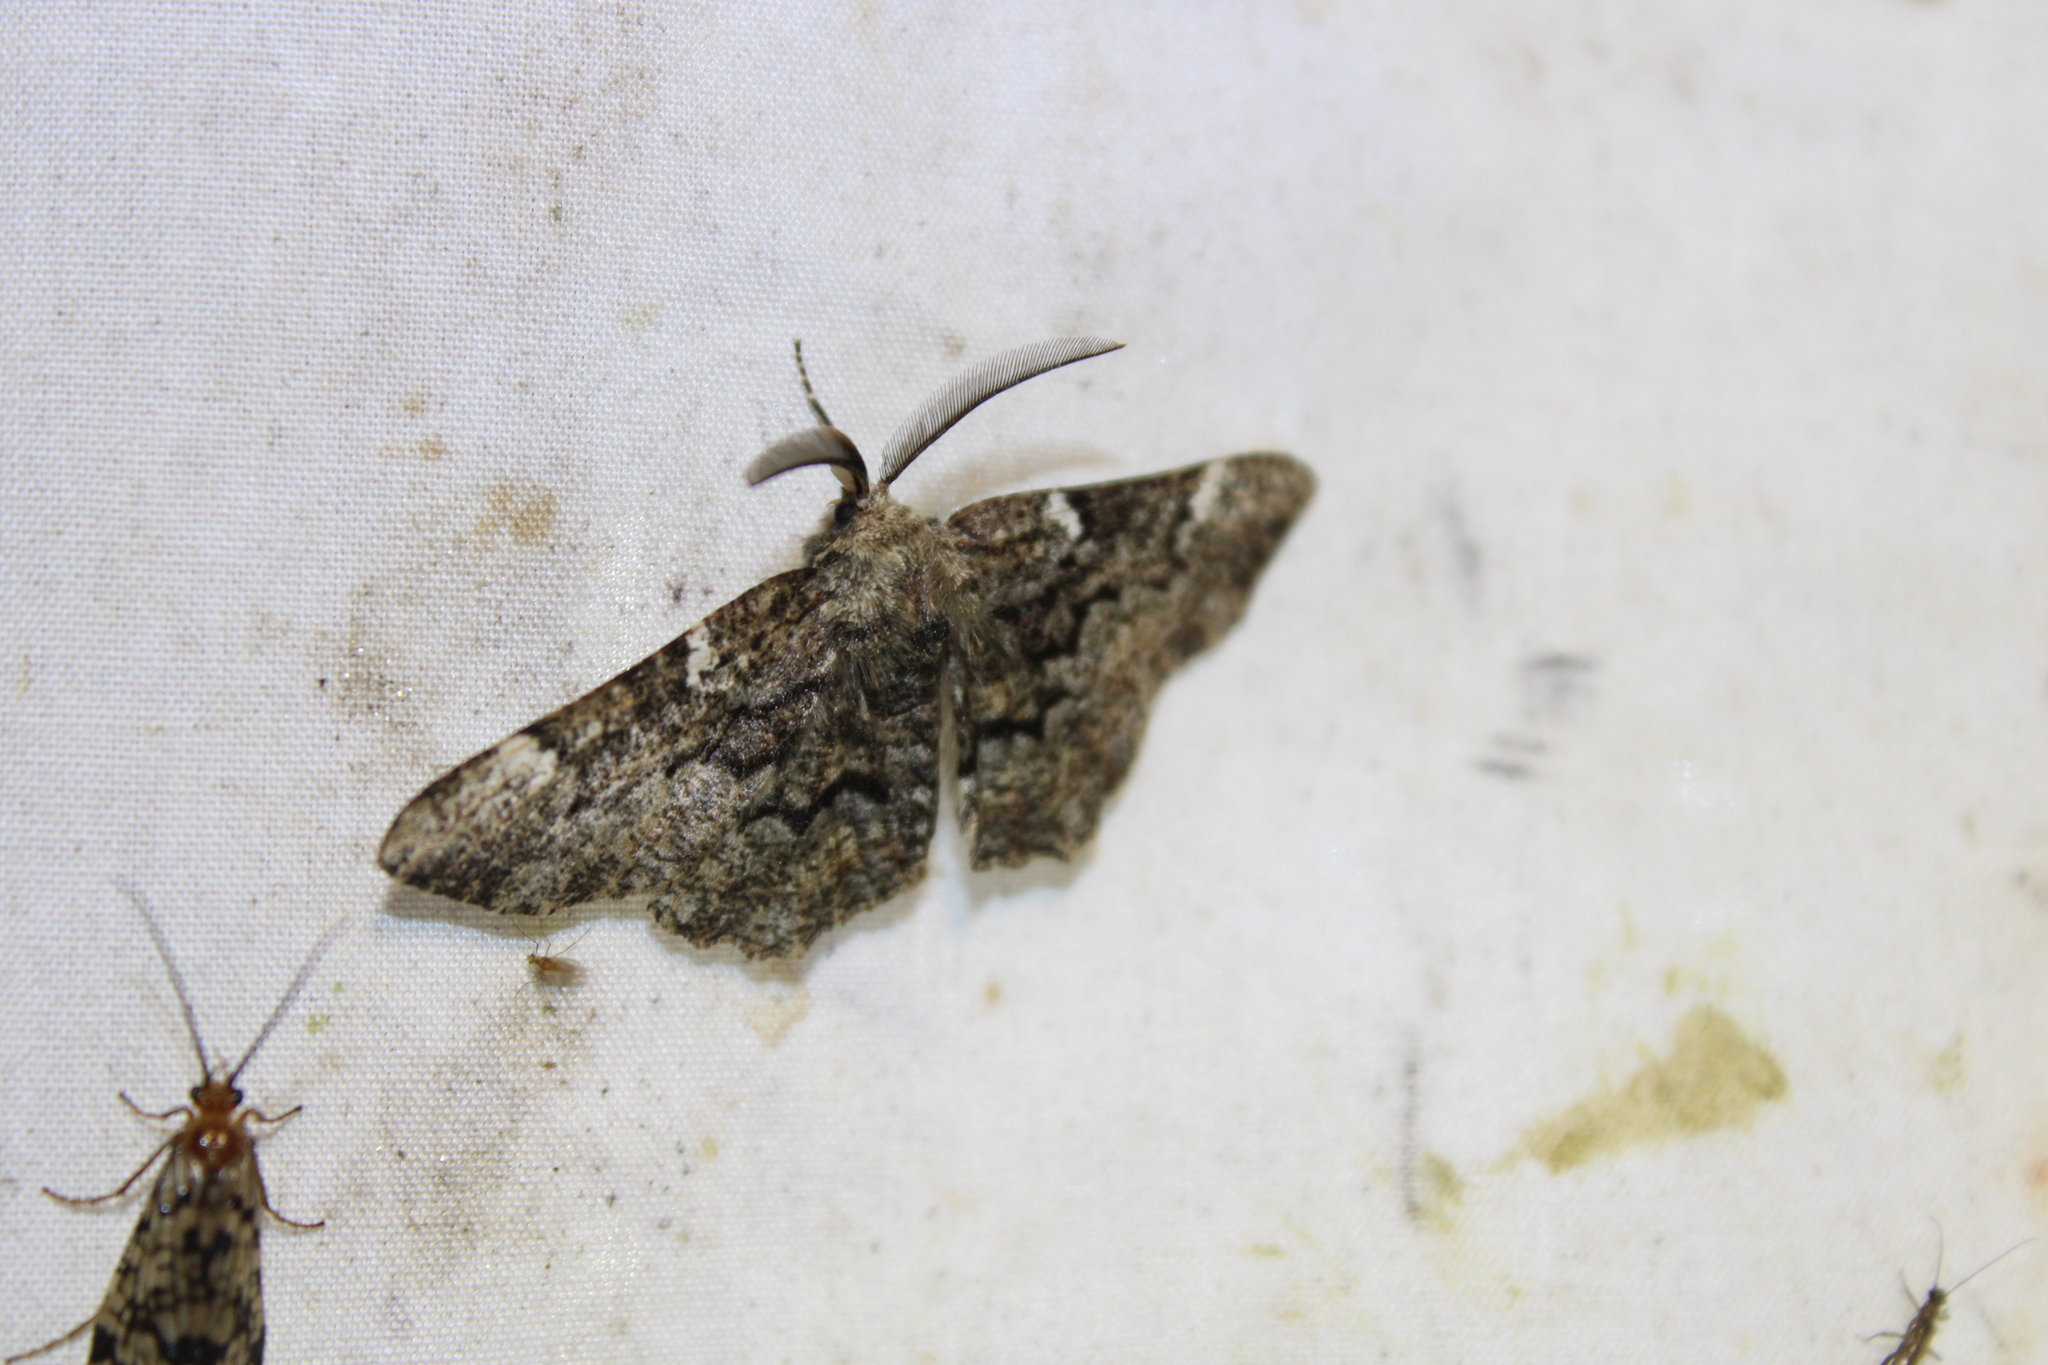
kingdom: Animalia
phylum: Arthropoda
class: Insecta
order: Lepidoptera
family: Geometridae
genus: Phaeoura
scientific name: Phaeoura quernaria
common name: Oak beauty
